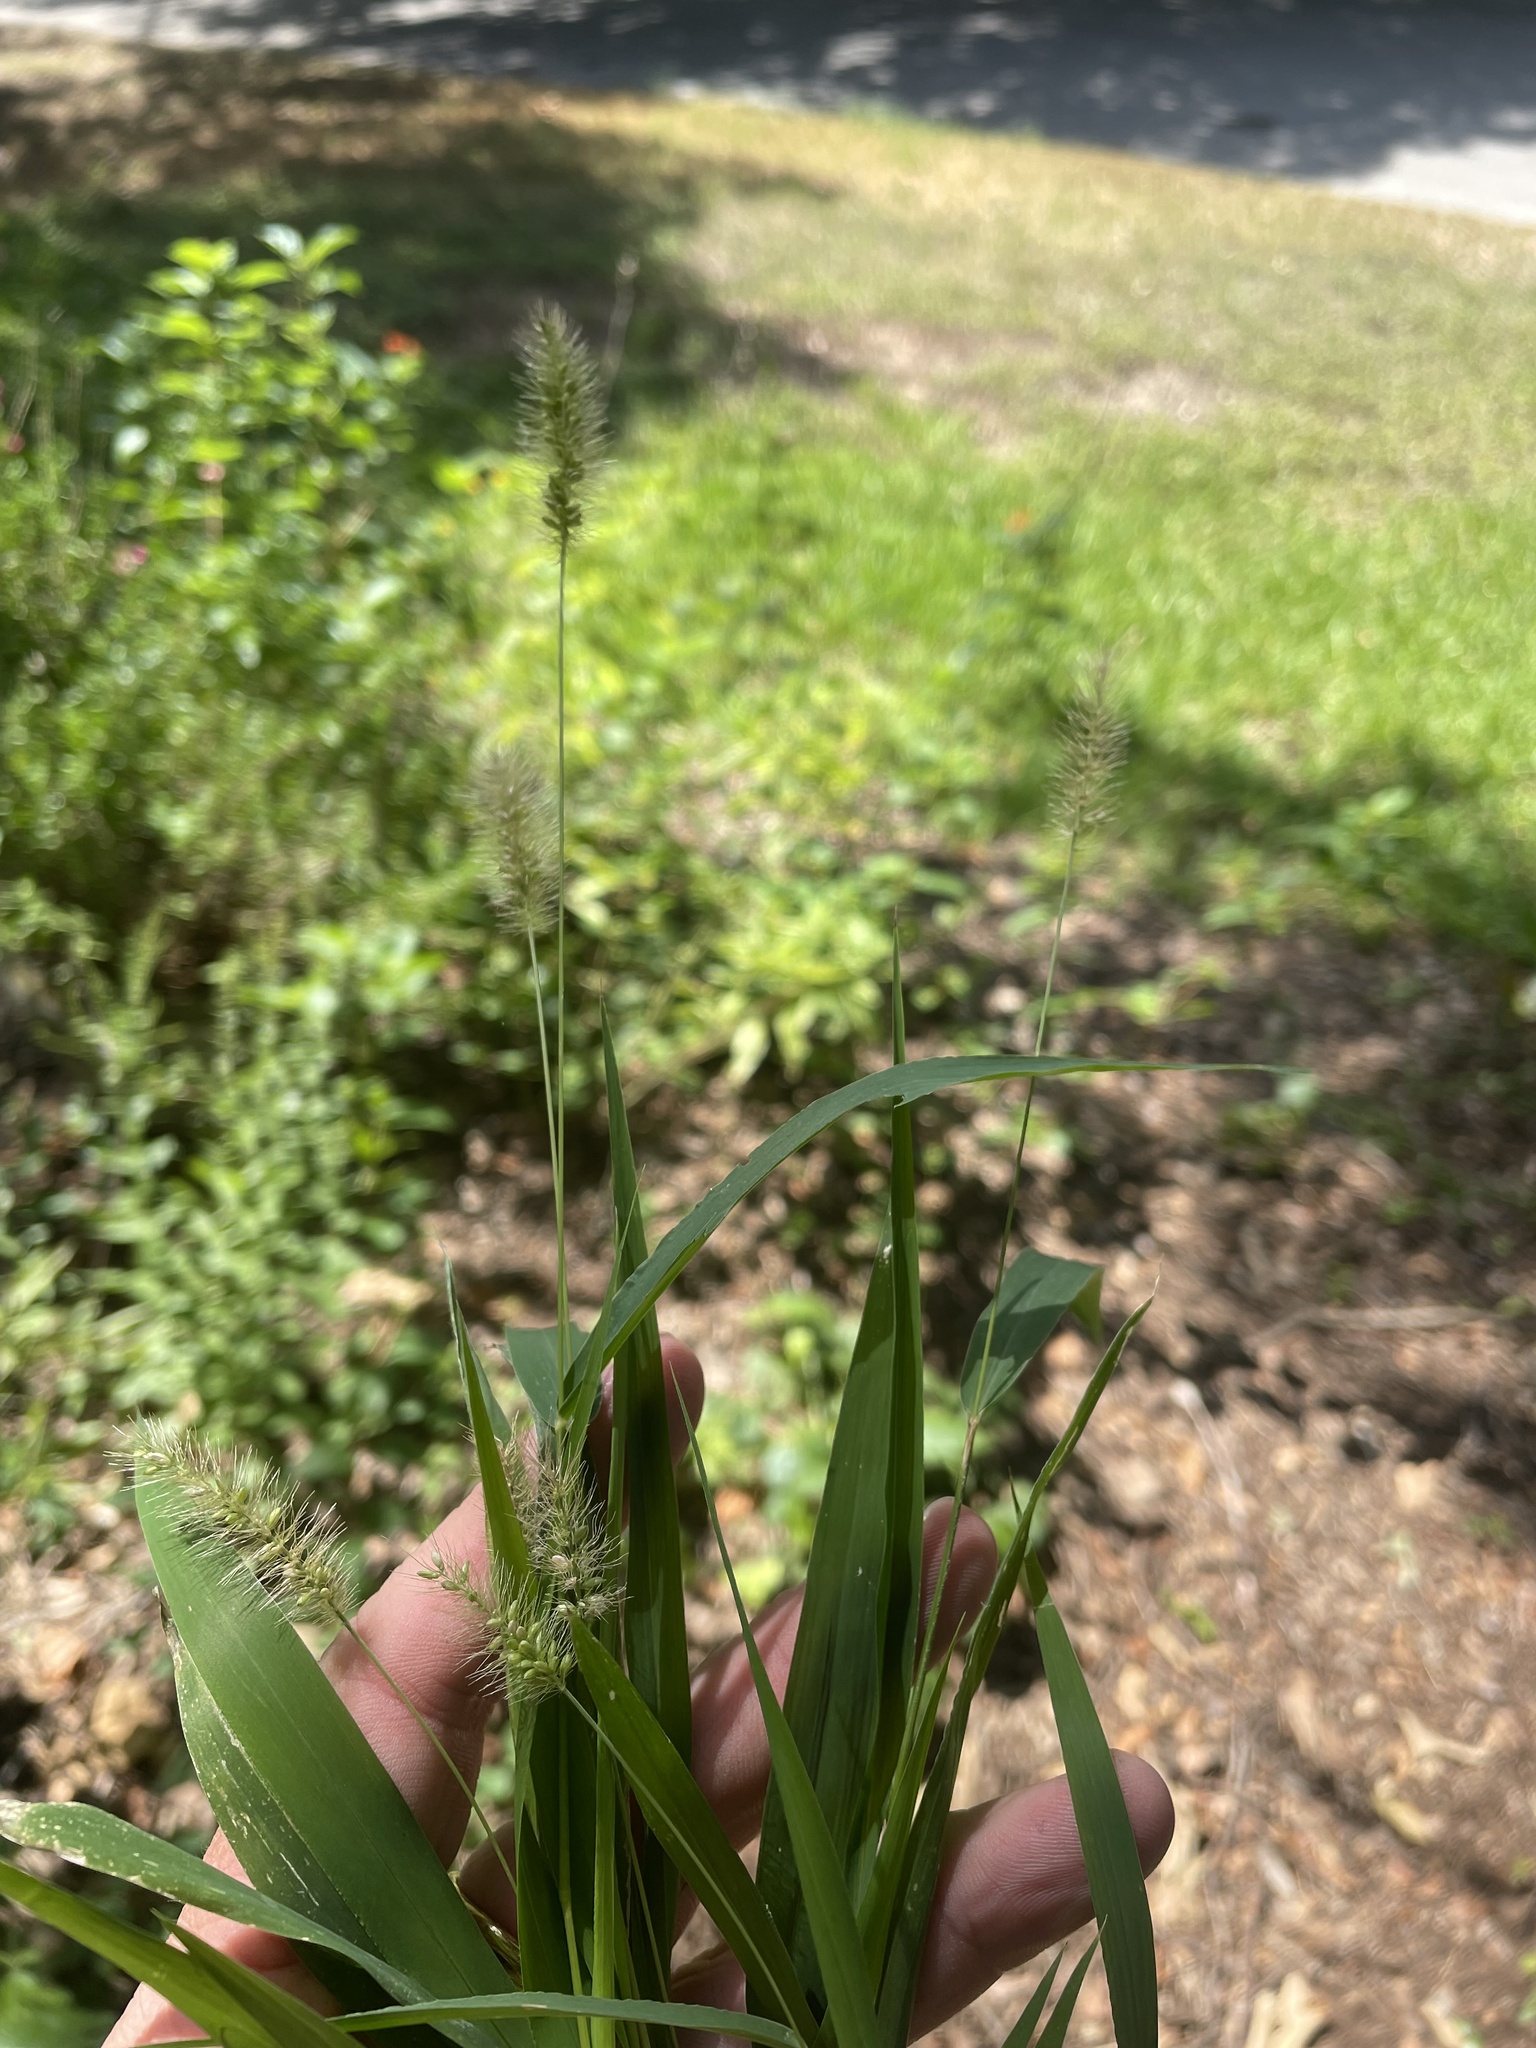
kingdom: Plantae
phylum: Tracheophyta
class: Liliopsida
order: Poales
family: Poaceae
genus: Setaria
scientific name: Setaria viridis
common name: Green bristlegrass
